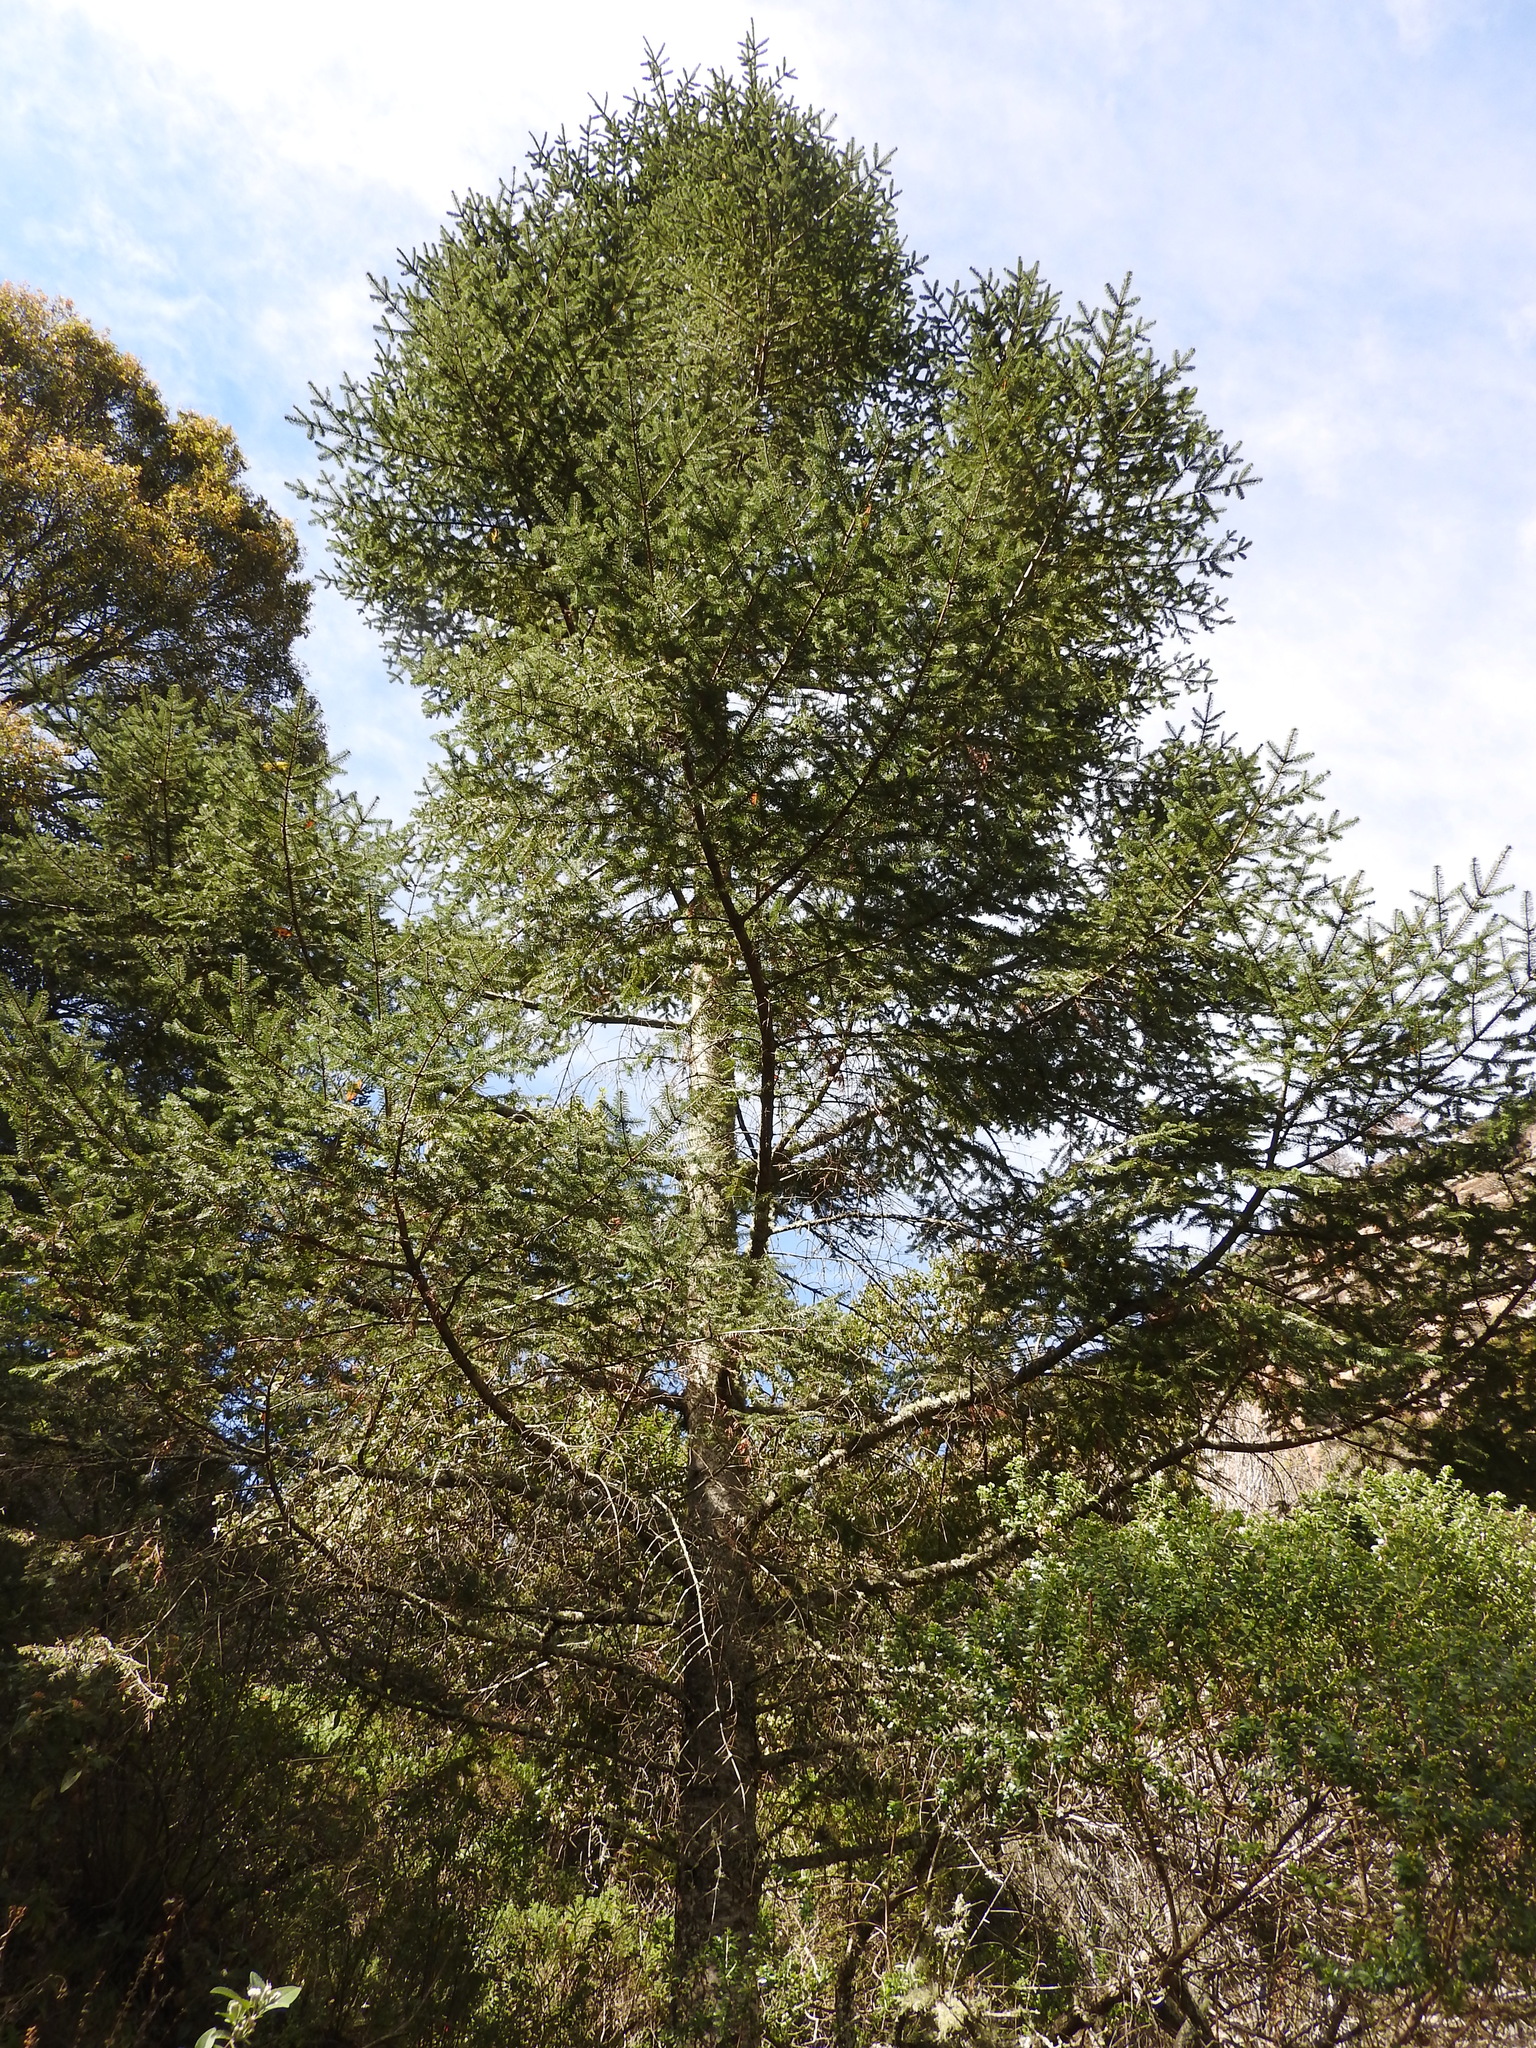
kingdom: Plantae
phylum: Tracheophyta
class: Pinopsida
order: Pinales
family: Pinaceae
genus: Abies
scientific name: Abies religiosa
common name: Sacred fir
